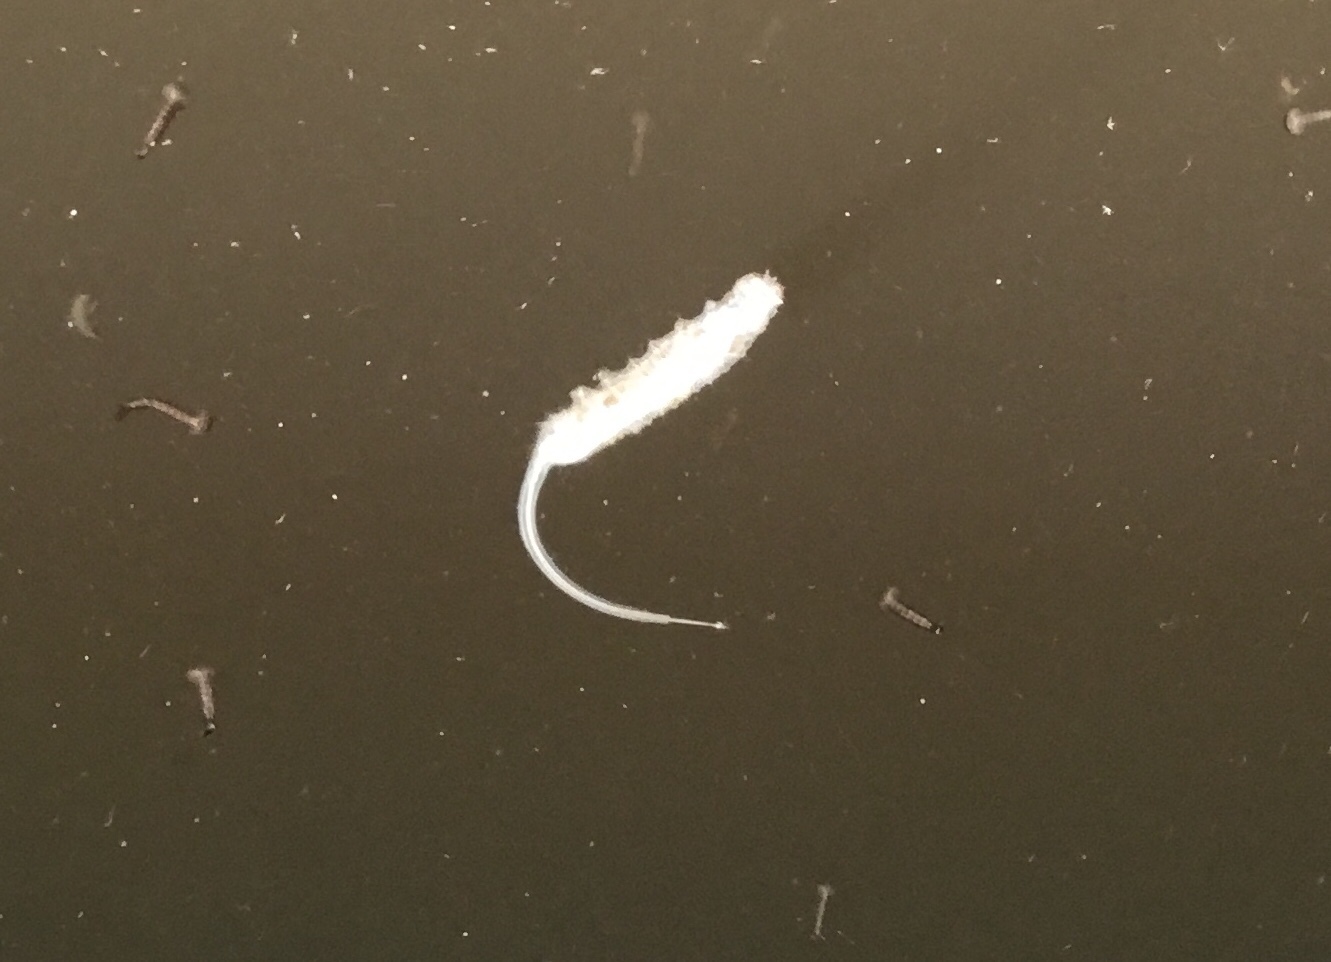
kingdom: Animalia
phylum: Arthropoda
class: Insecta
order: Diptera
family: Syrphidae
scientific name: Syrphidae
